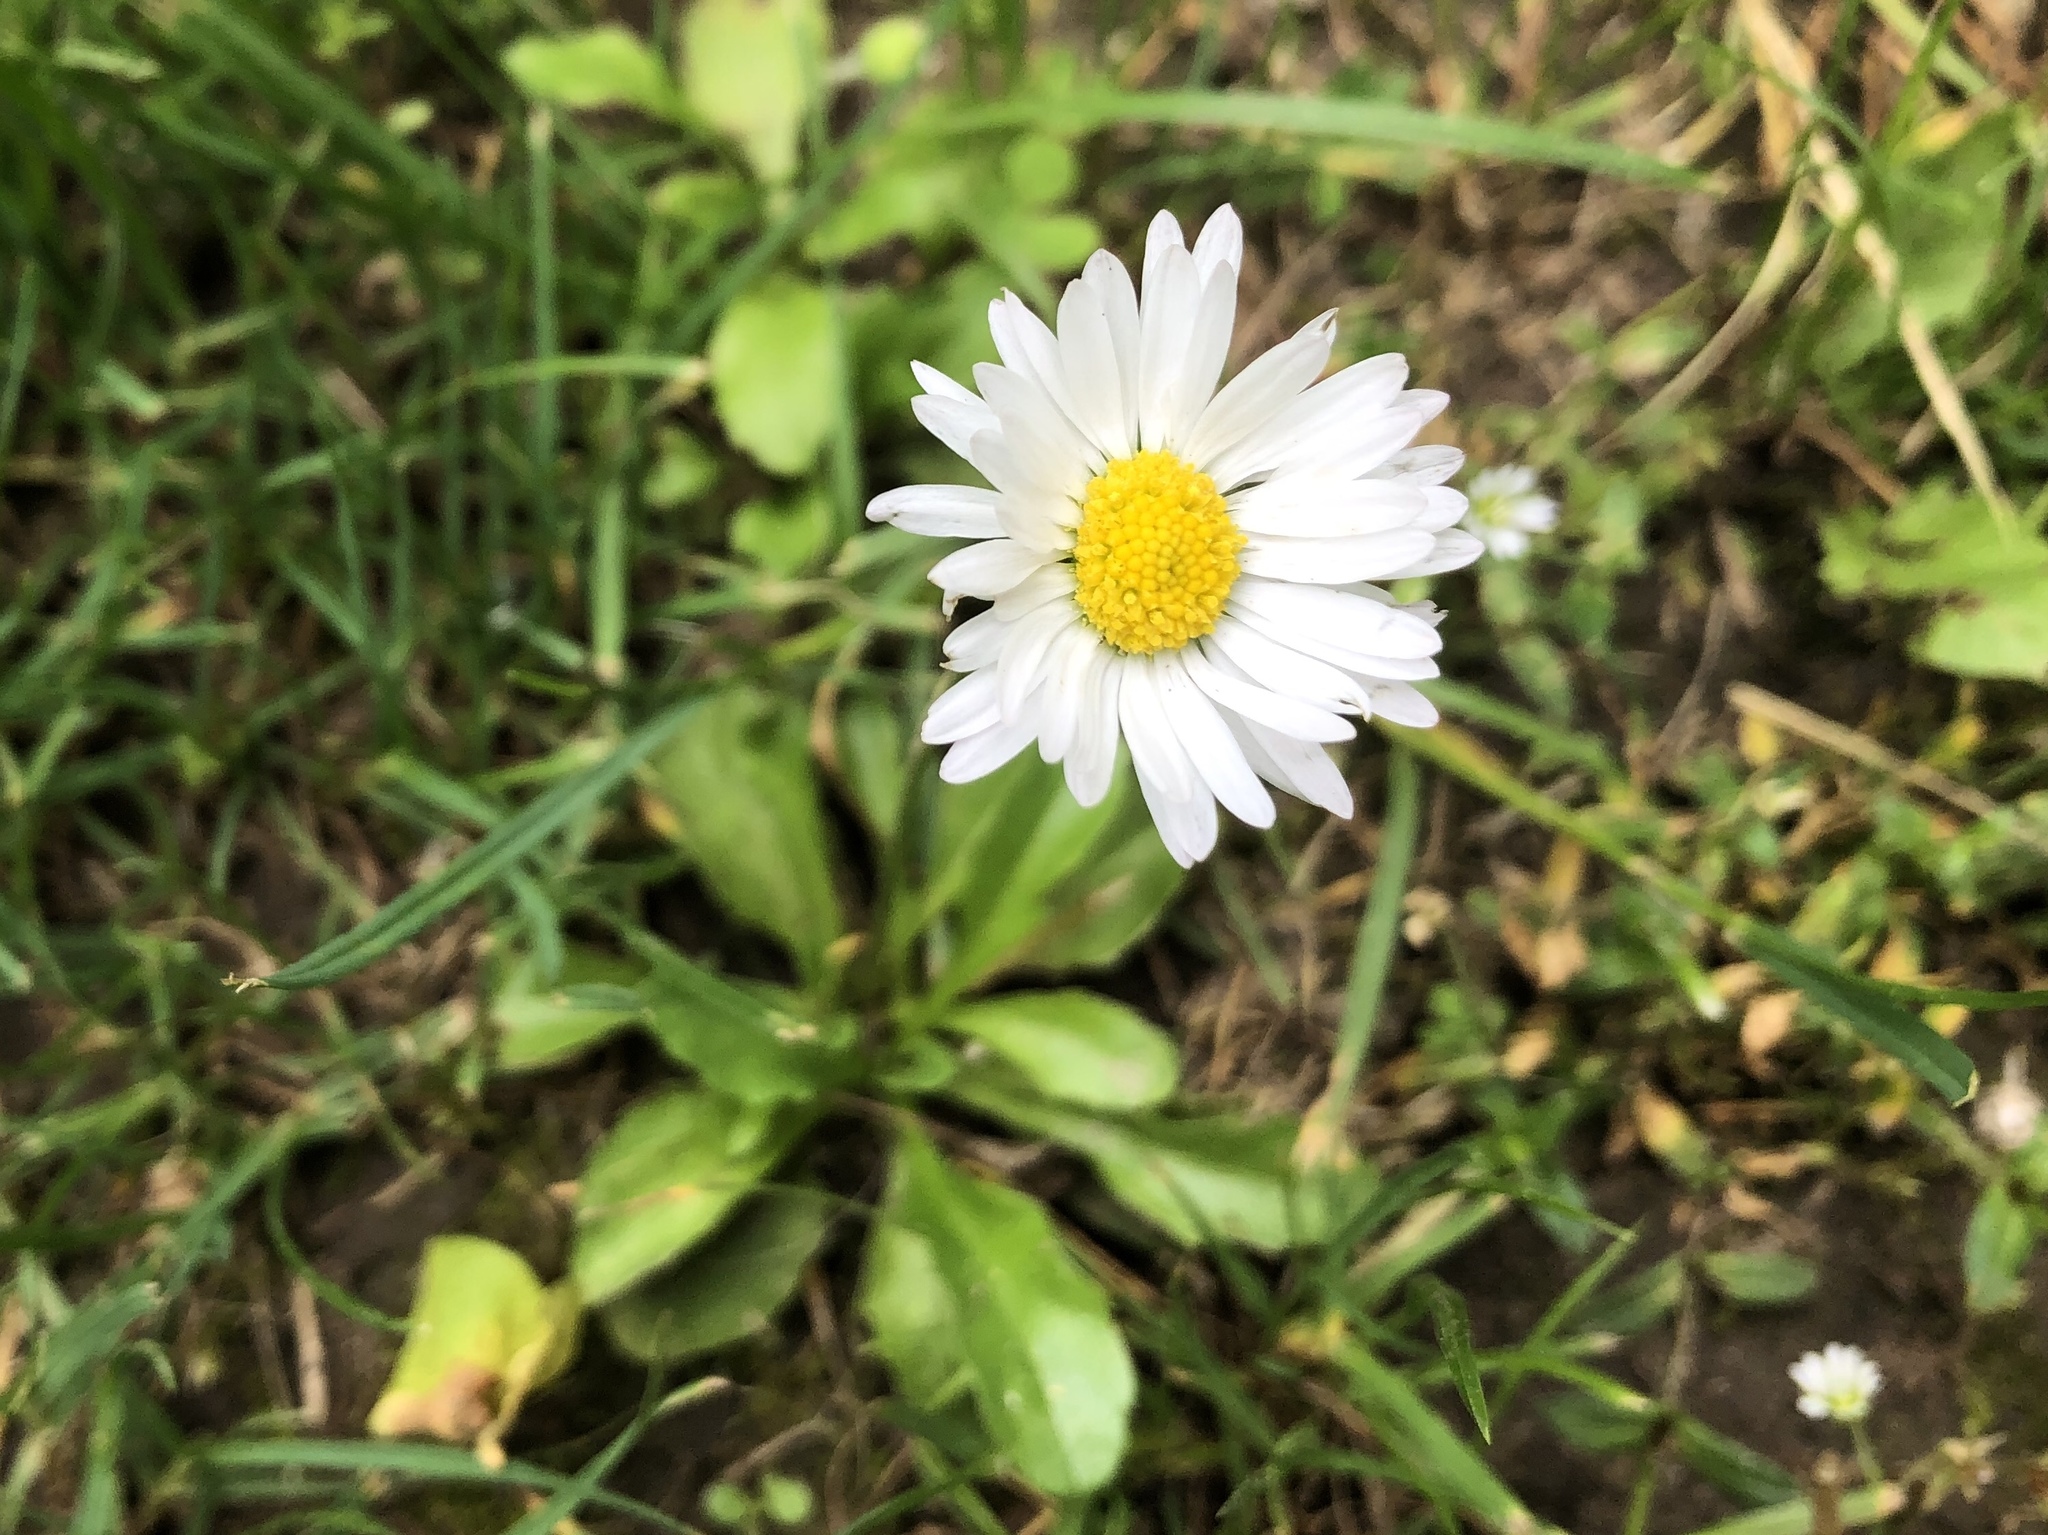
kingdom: Plantae
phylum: Tracheophyta
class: Magnoliopsida
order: Asterales
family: Asteraceae
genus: Bellis
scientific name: Bellis perennis
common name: Lawndaisy
